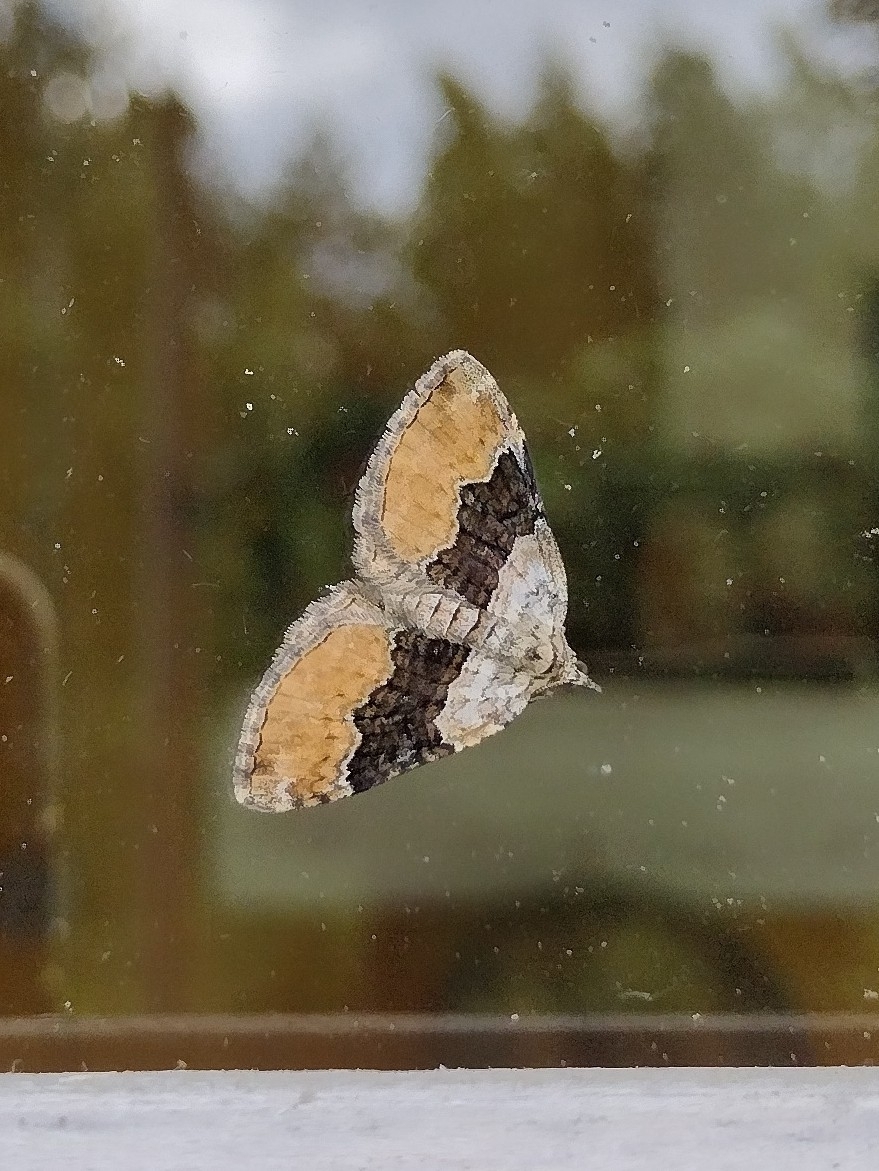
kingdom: Animalia
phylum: Arthropoda
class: Insecta
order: Lepidoptera
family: Geometridae
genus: Xanthorhoe
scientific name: Xanthorhoe quadrifasiata
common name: Large twin-spot carpet
